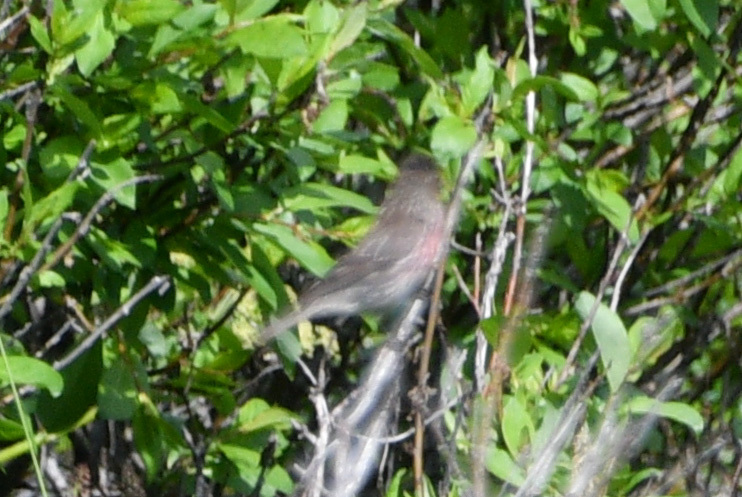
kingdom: Animalia
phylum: Chordata
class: Aves
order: Passeriformes
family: Fringillidae
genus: Acanthis
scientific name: Acanthis flammea
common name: Common redpoll
